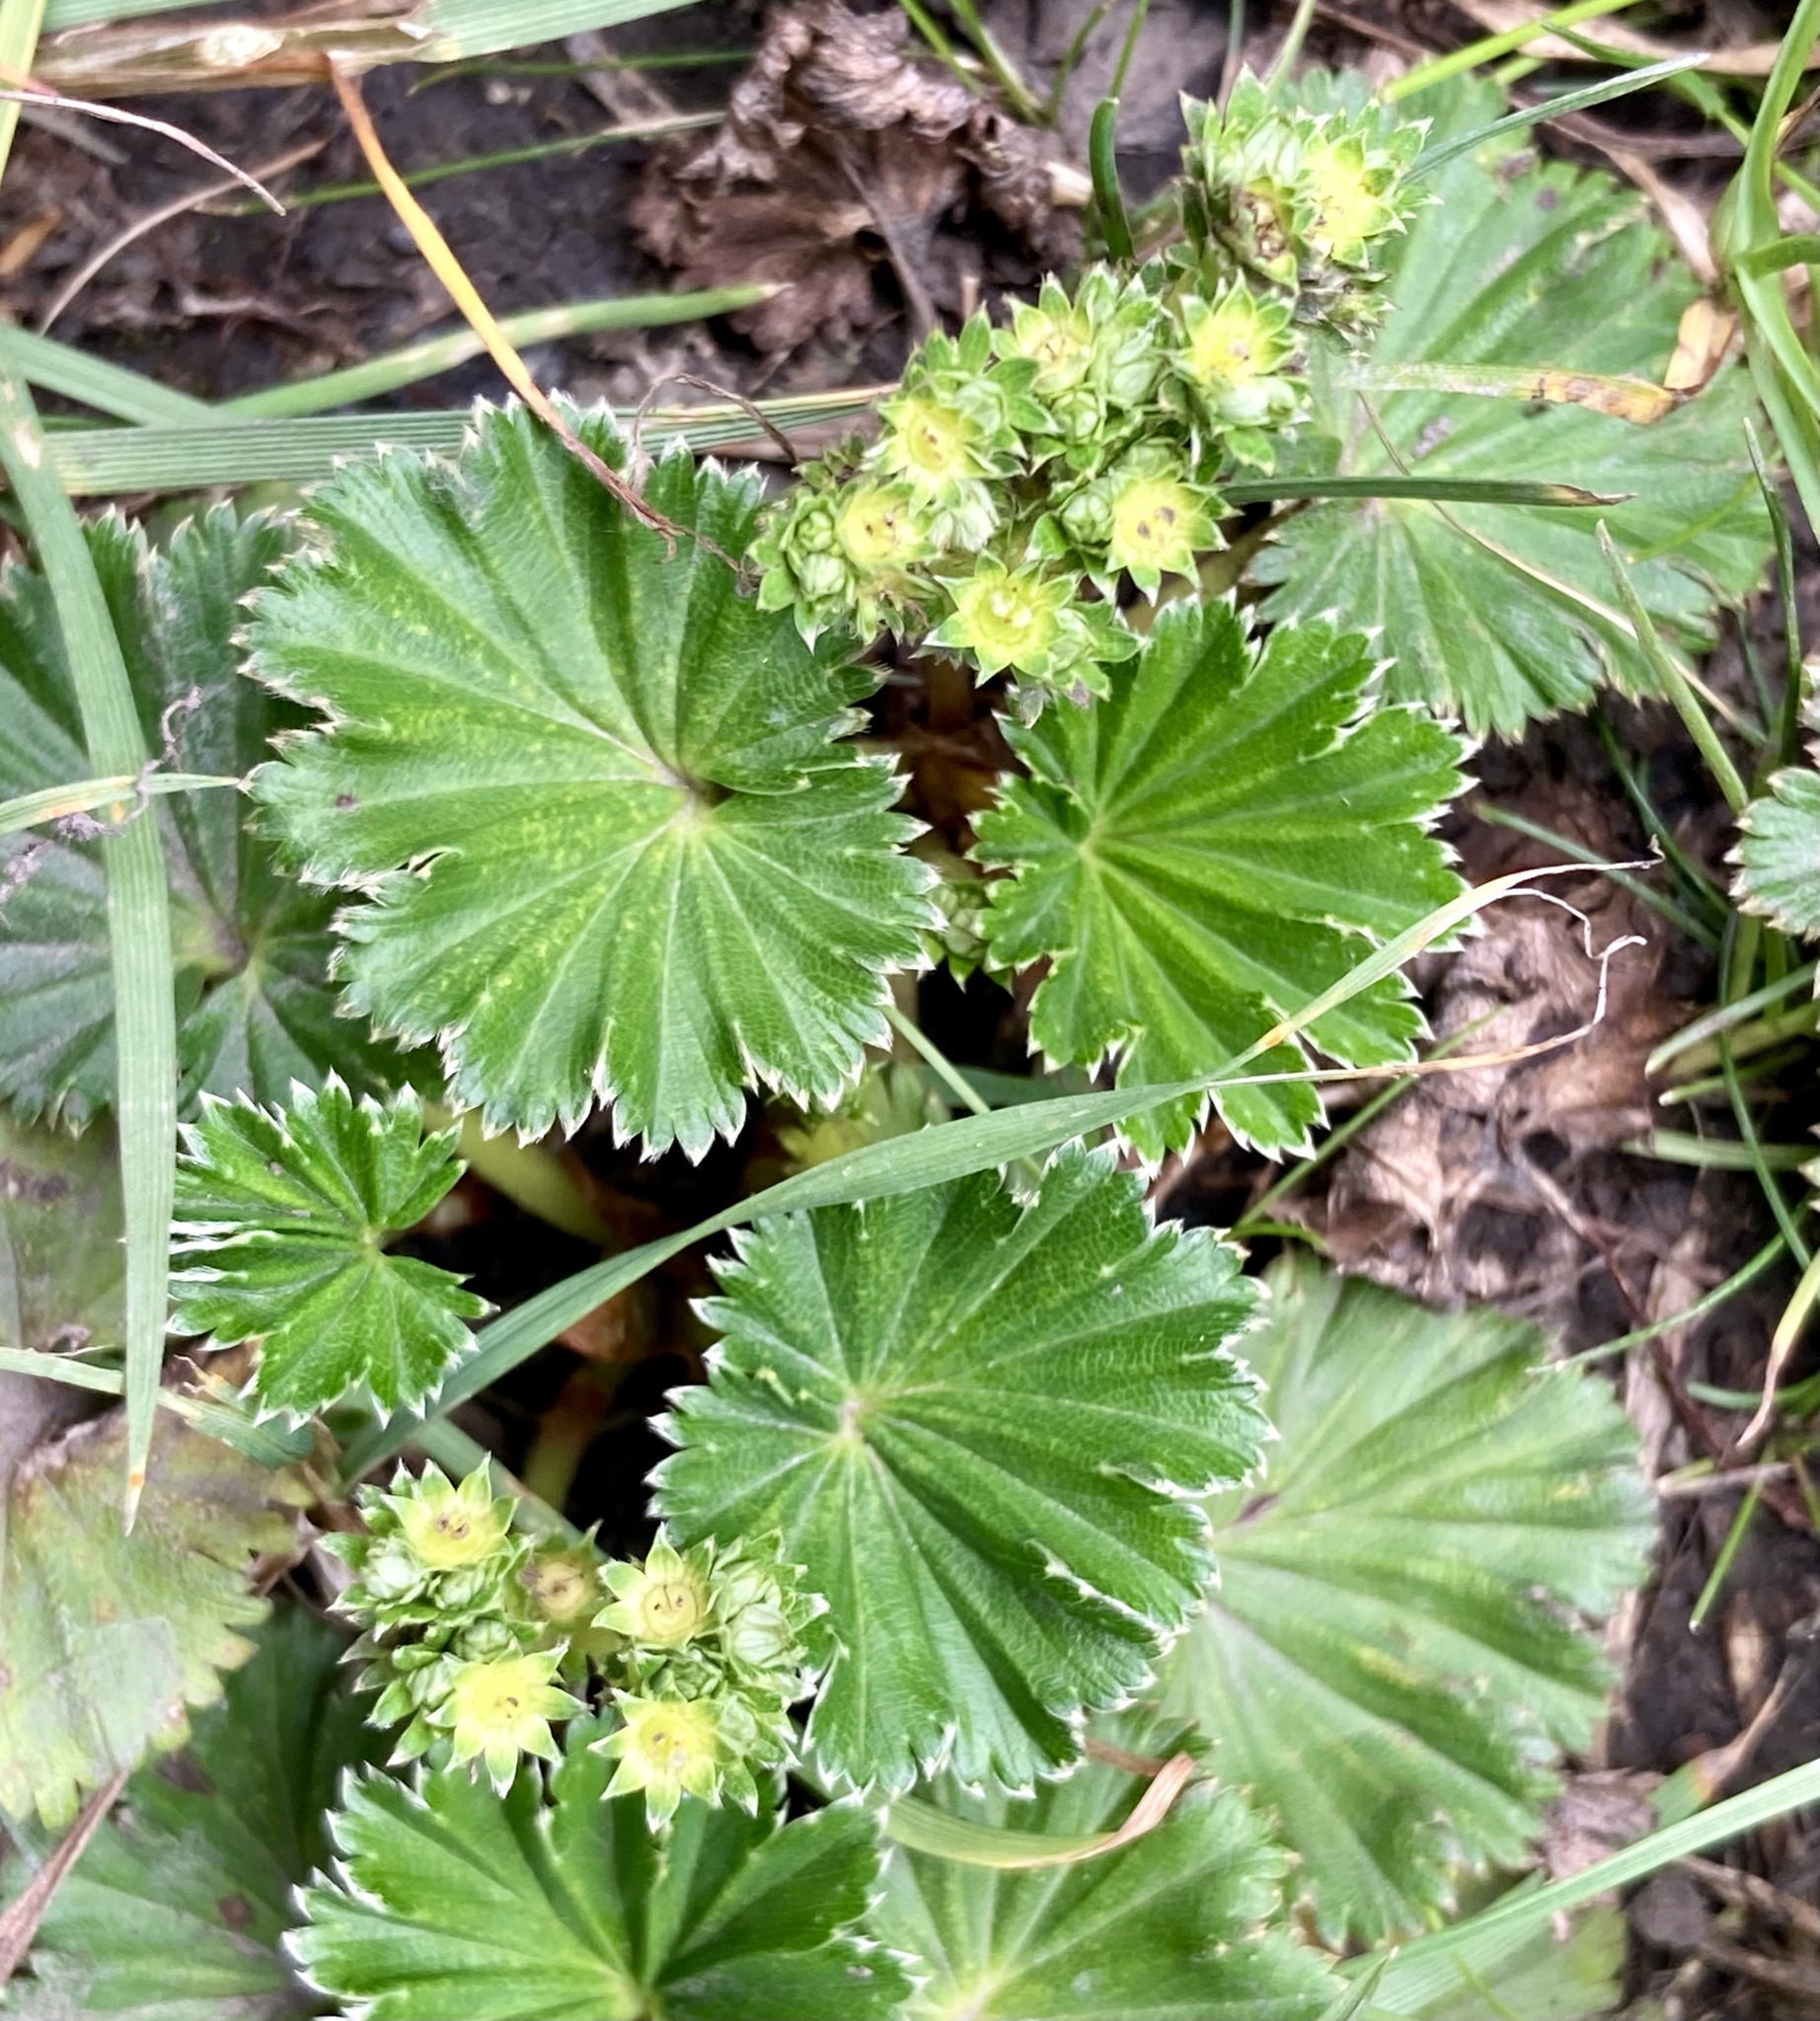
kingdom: Plantae
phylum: Tracheophyta
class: Magnoliopsida
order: Rosales
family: Rosaceae
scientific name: Rosaceae
